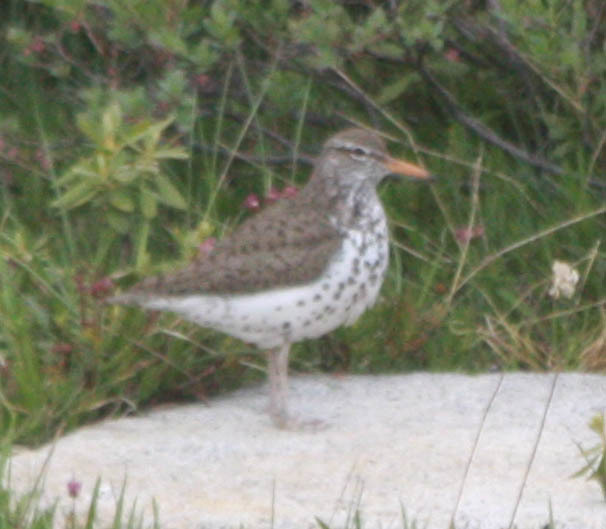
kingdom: Animalia
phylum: Chordata
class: Aves
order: Charadriiformes
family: Scolopacidae
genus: Actitis
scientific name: Actitis macularius
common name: Spotted sandpiper
